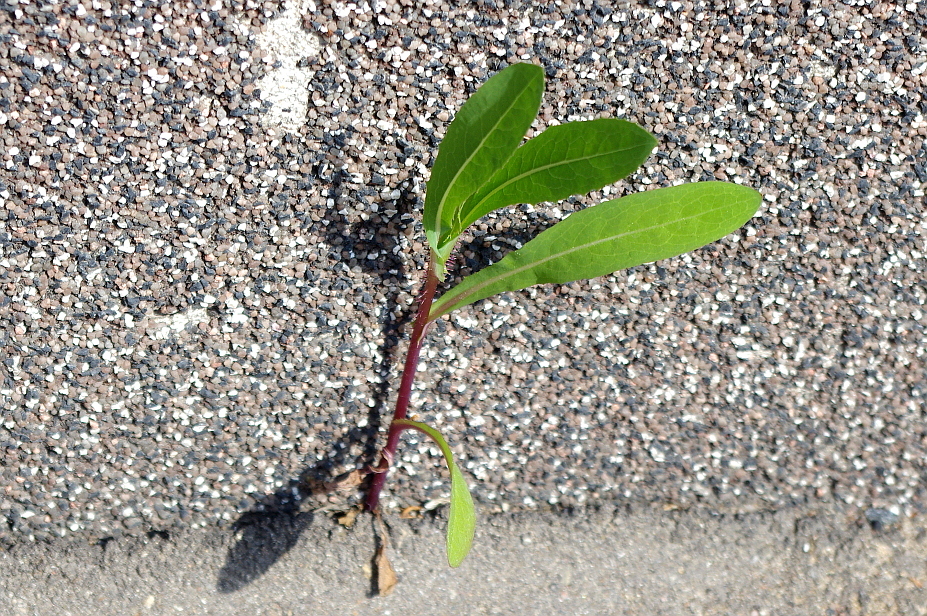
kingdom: Plantae
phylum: Tracheophyta
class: Magnoliopsida
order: Asterales
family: Asteraceae
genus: Lactuca
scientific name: Lactuca serriola
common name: Prickly lettuce
